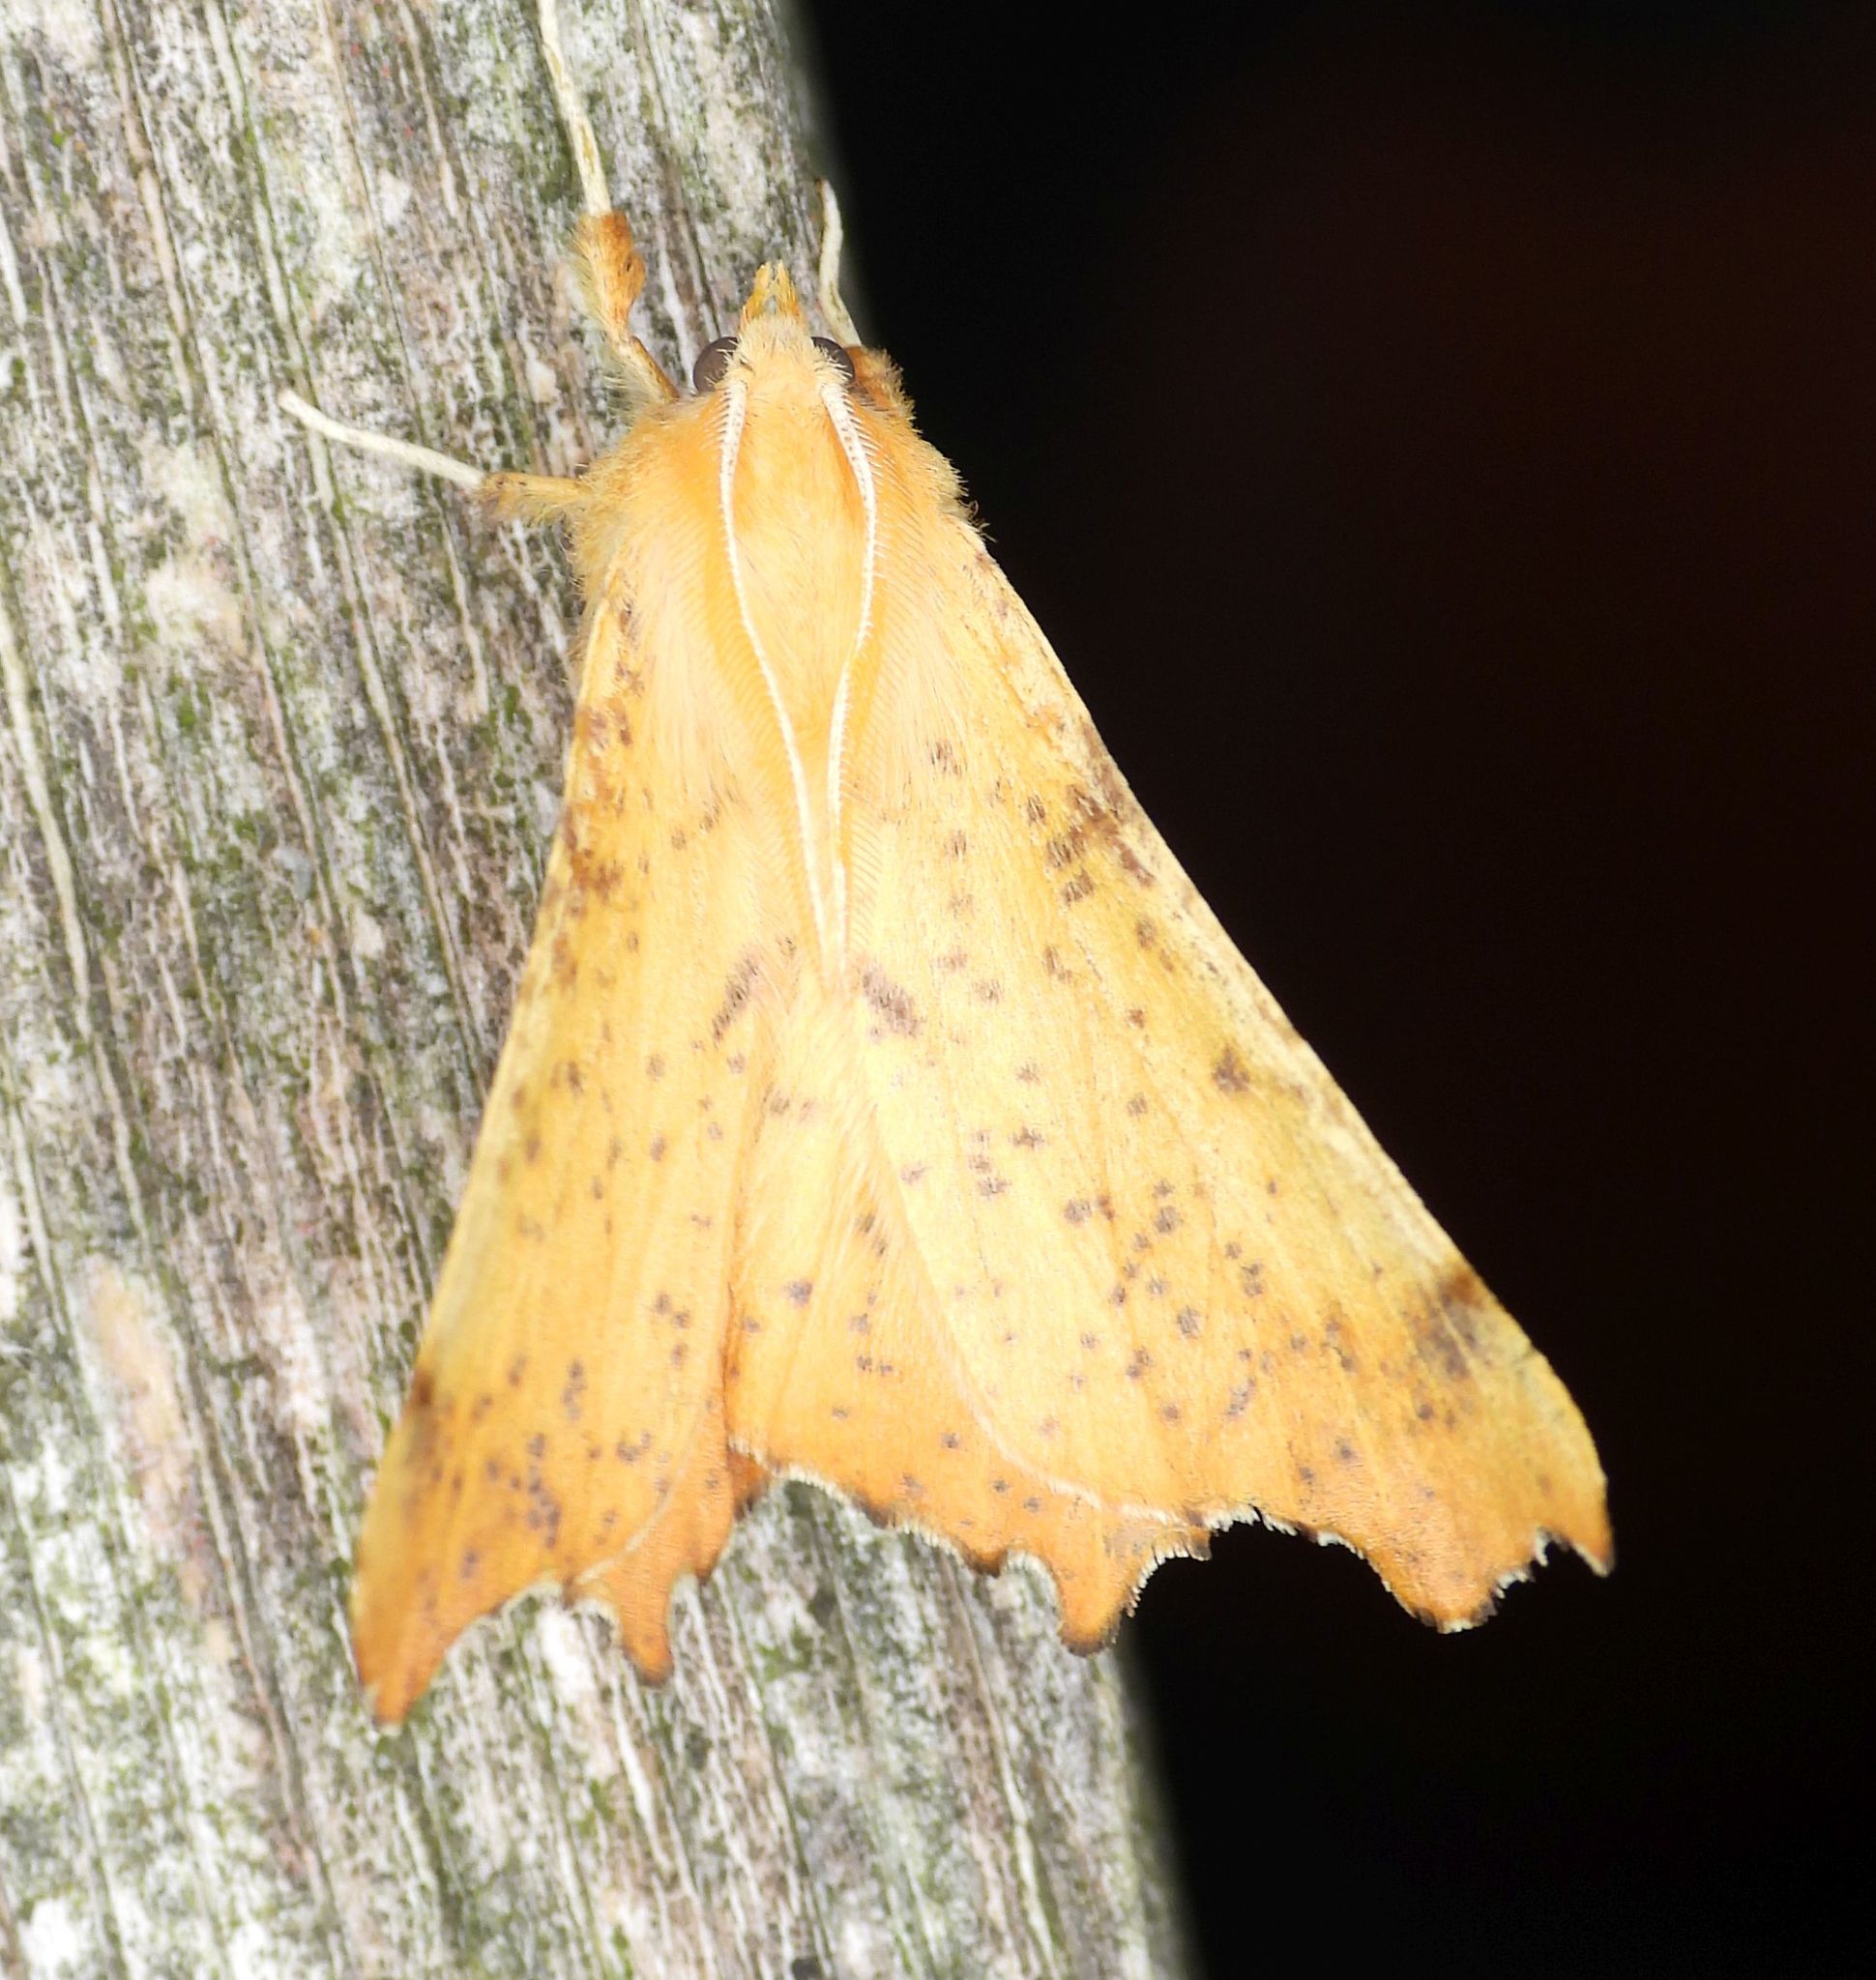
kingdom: Animalia
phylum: Arthropoda
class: Insecta
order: Lepidoptera
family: Geometridae
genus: Ennomos
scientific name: Ennomos magnaria
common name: Maple spanworm
